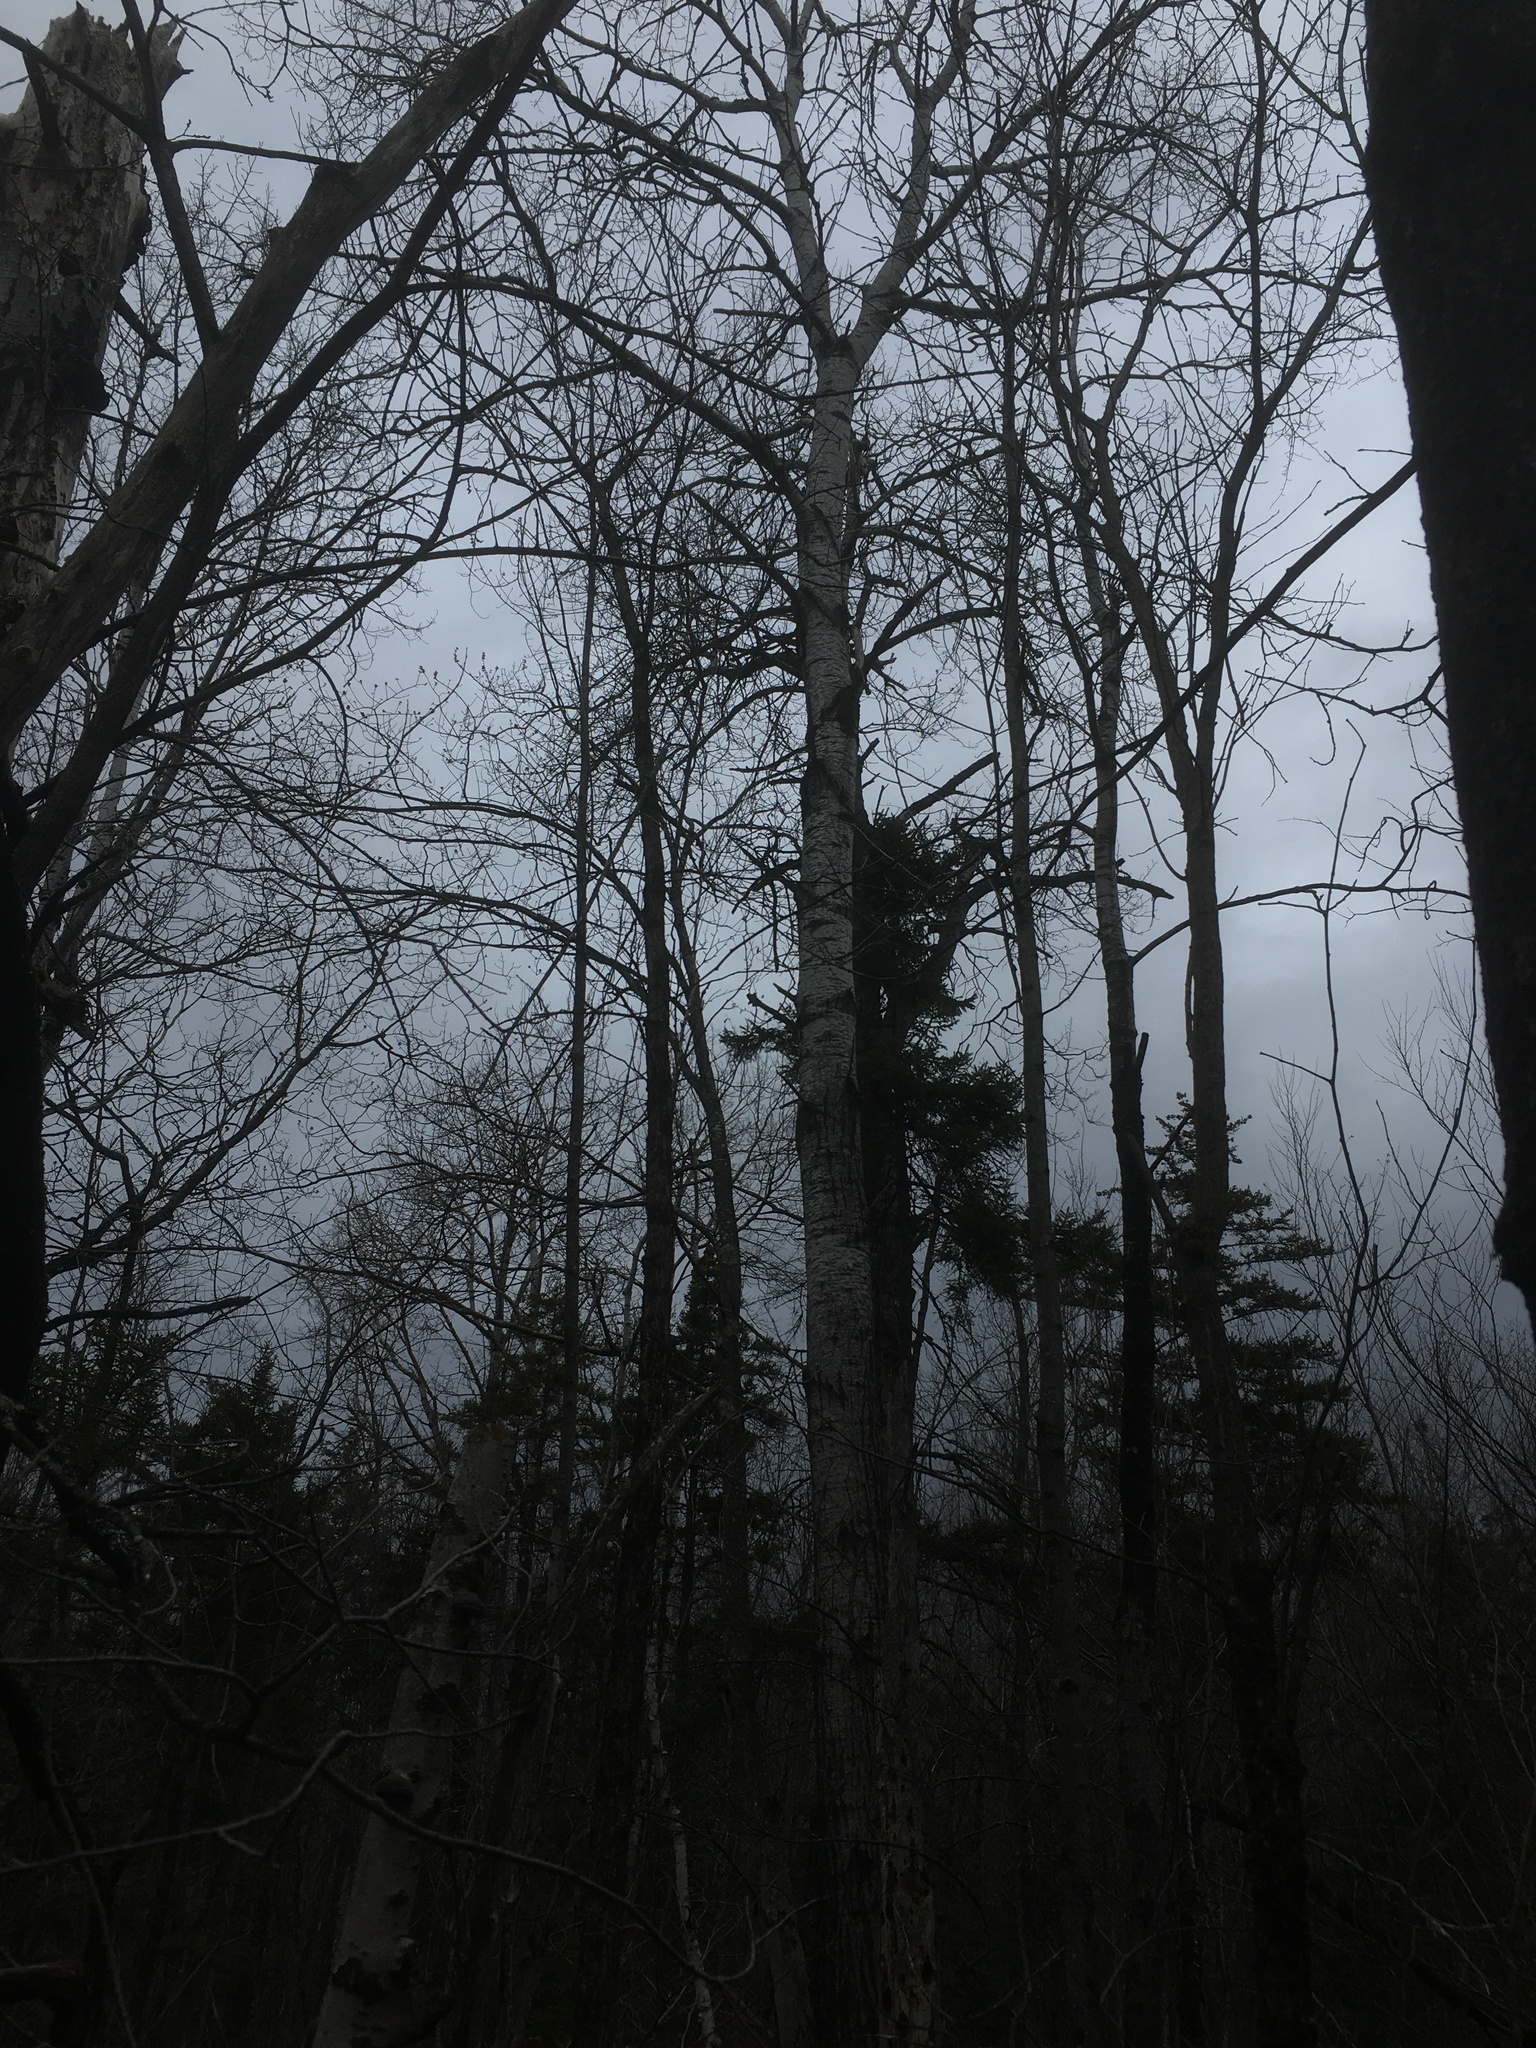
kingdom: Plantae
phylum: Tracheophyta
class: Magnoliopsida
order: Malpighiales
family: Salicaceae
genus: Populus
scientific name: Populus tremuloides
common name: Quaking aspen
